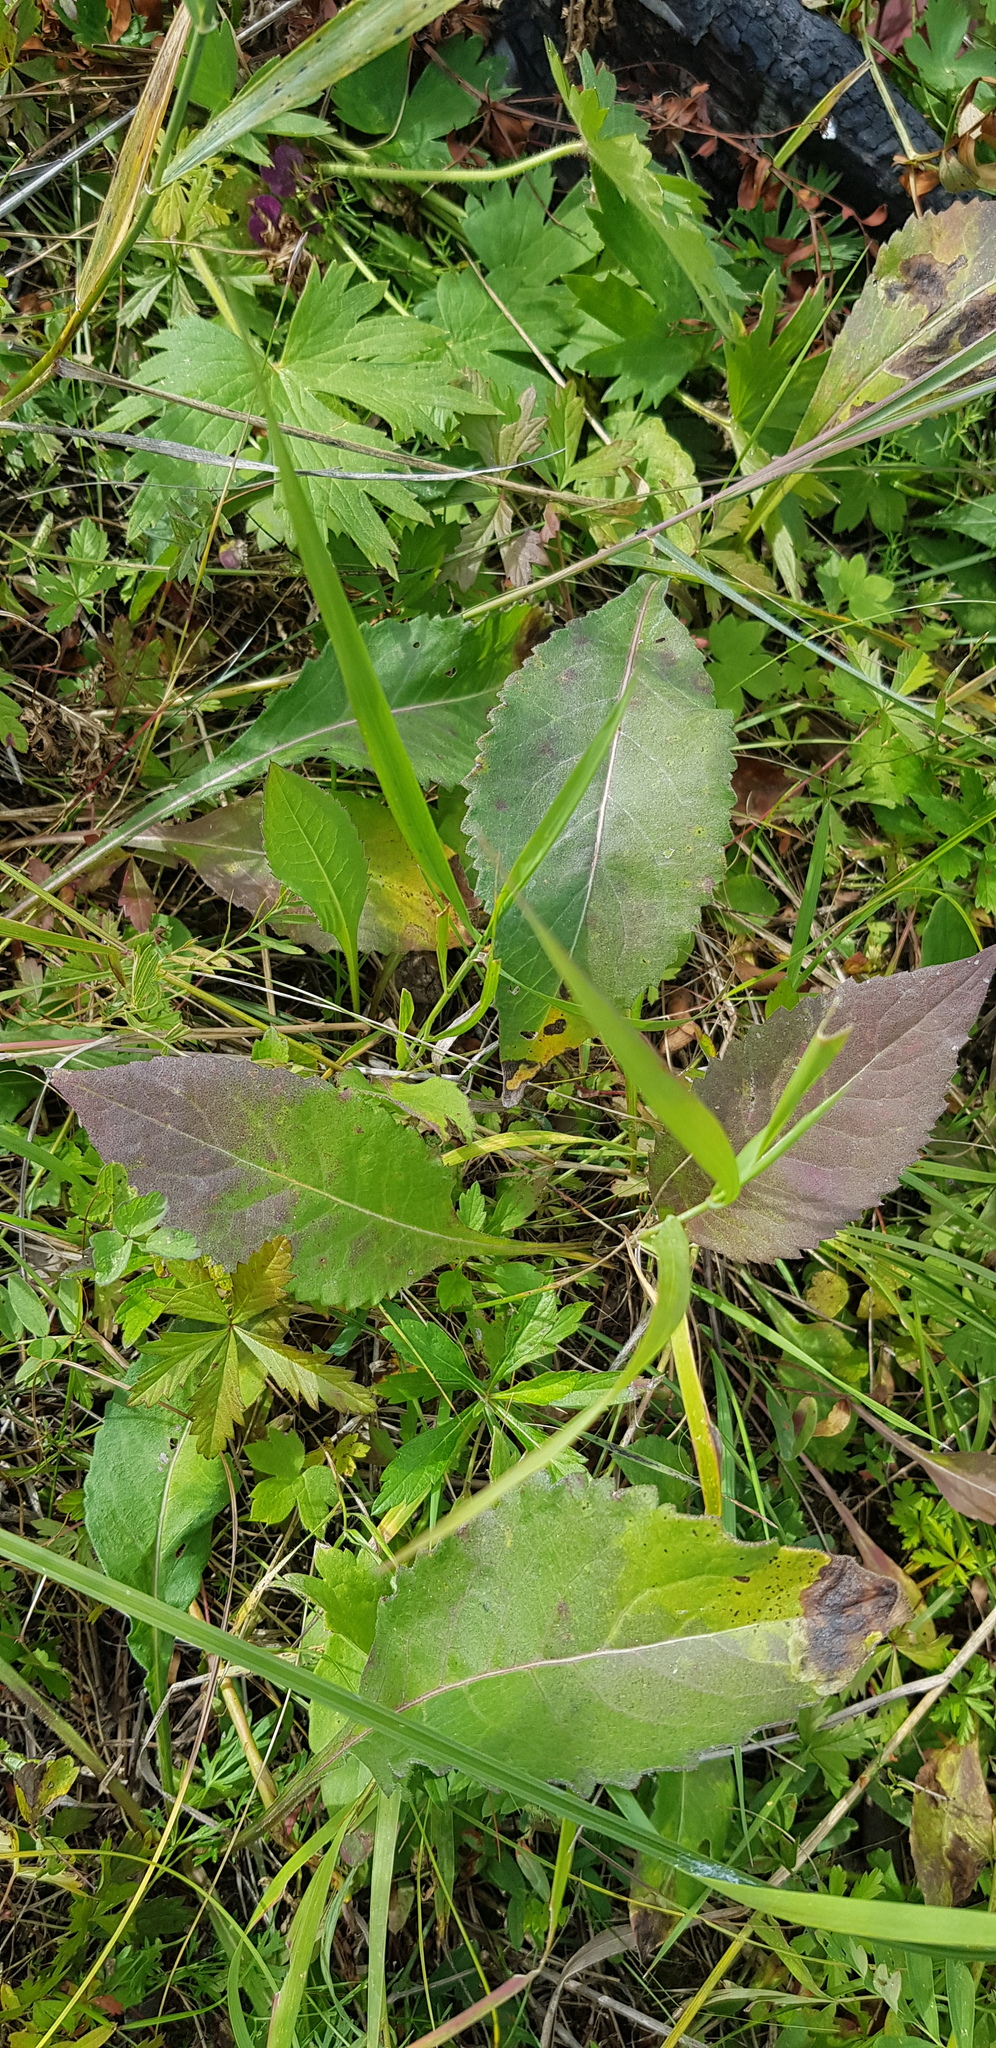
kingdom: Plantae
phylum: Tracheophyta
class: Magnoliopsida
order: Asterales
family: Asteraceae
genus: Solidago
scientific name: Solidago dahurica
